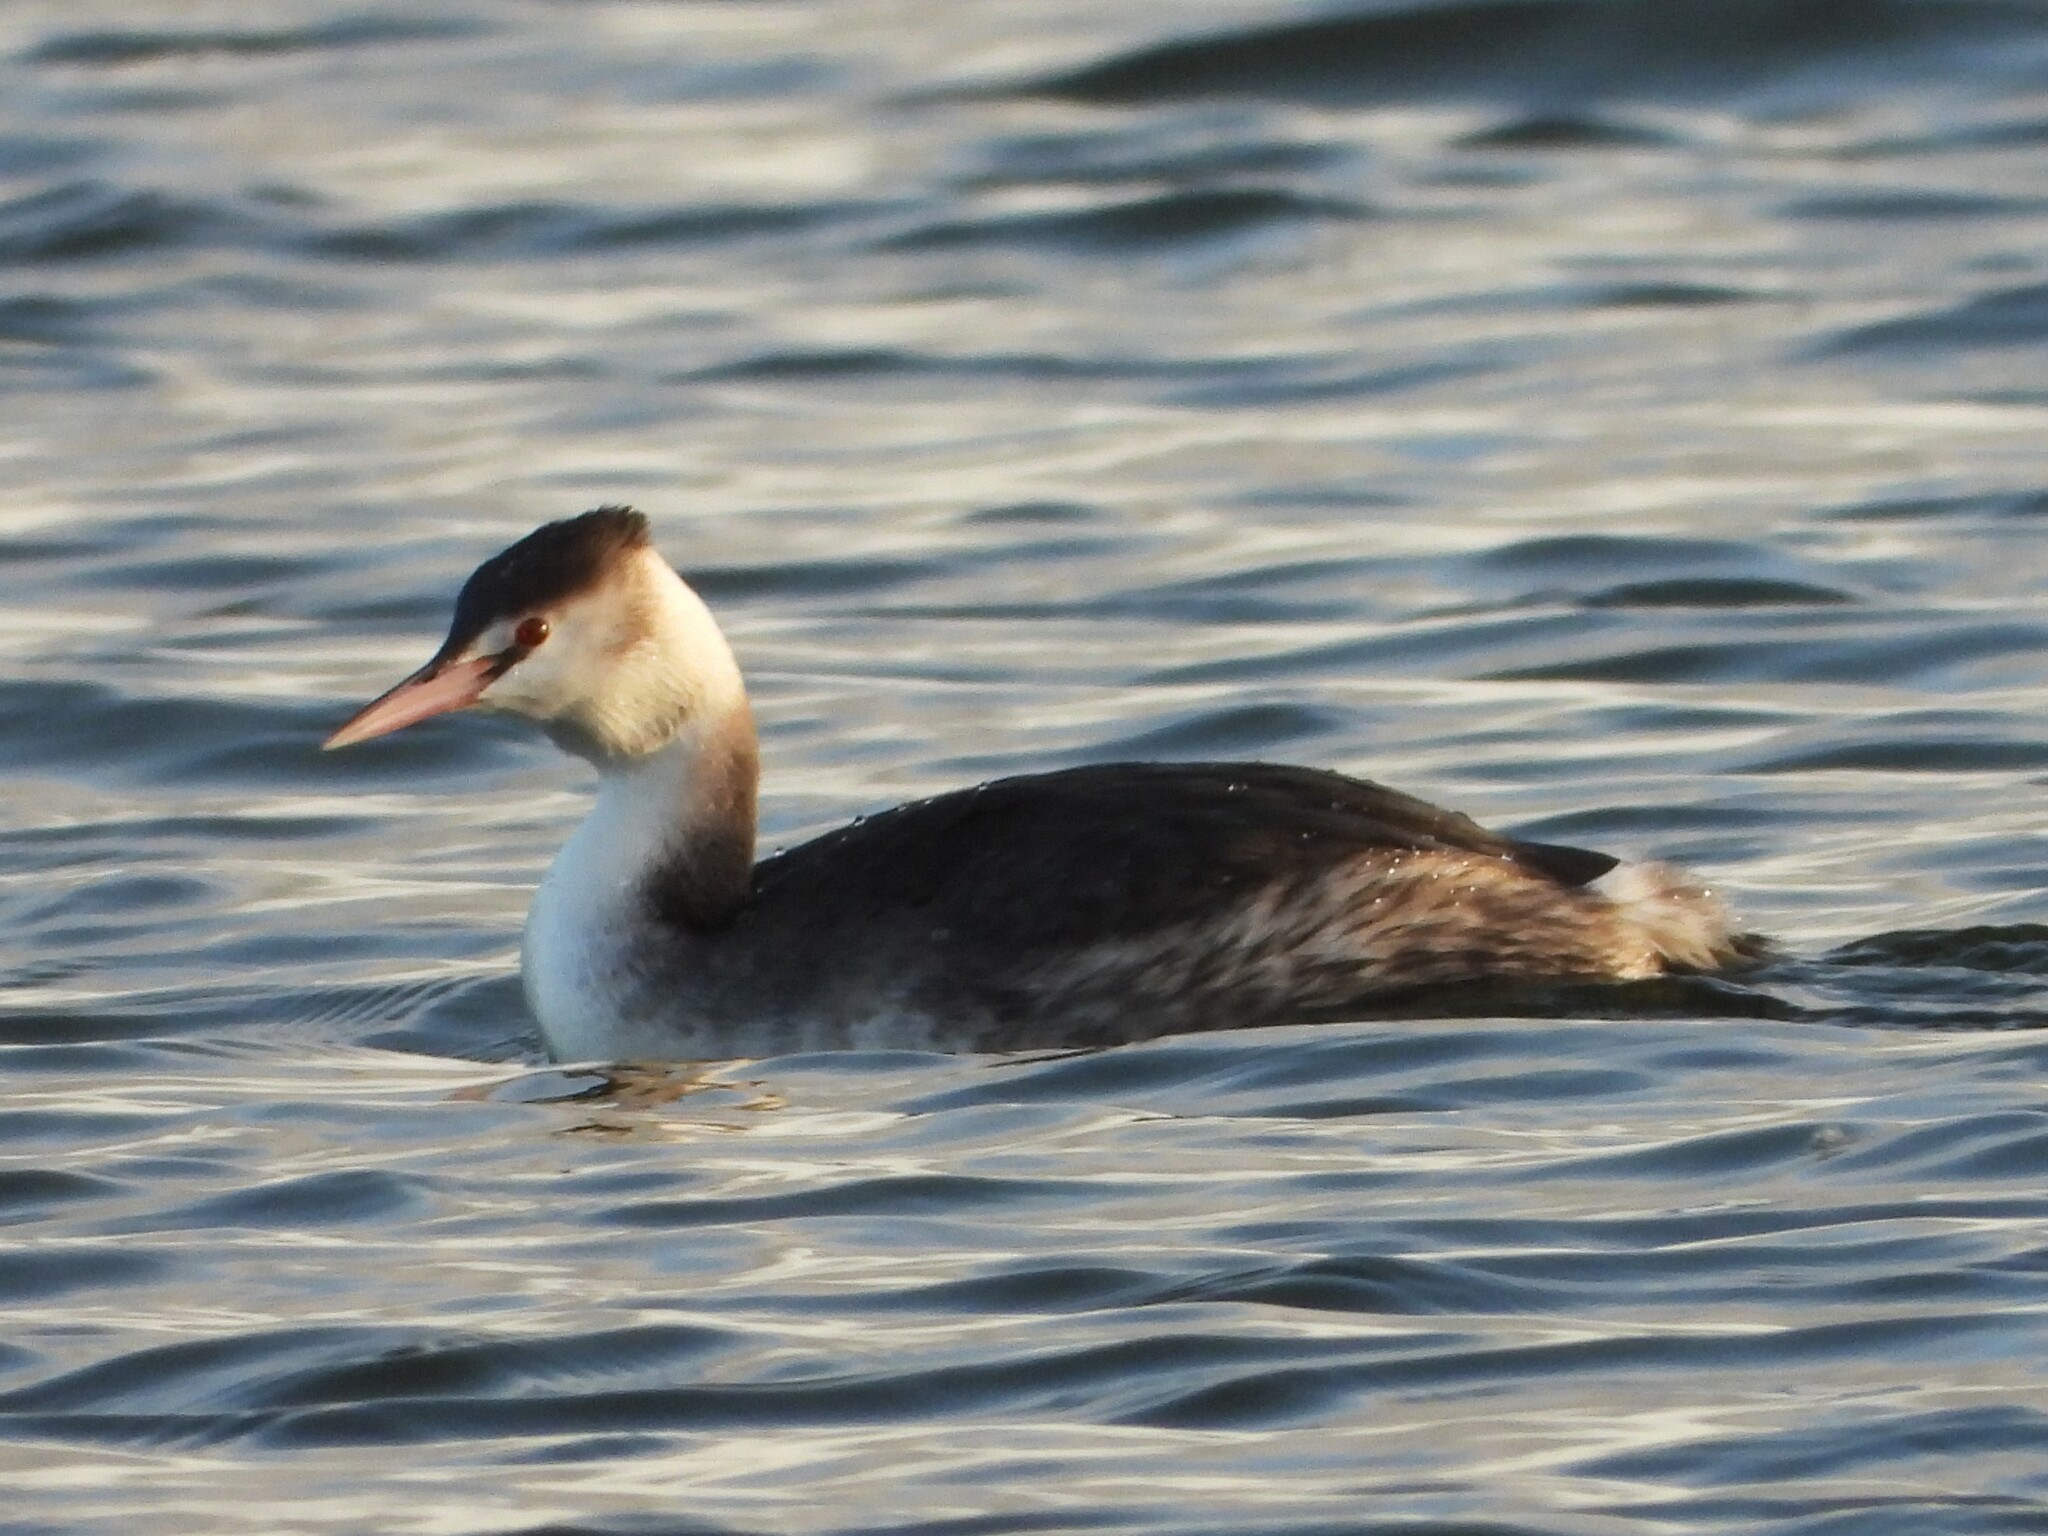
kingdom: Animalia
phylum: Chordata
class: Aves
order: Podicipediformes
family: Podicipedidae
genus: Podiceps
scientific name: Podiceps cristatus
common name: Great crested grebe
